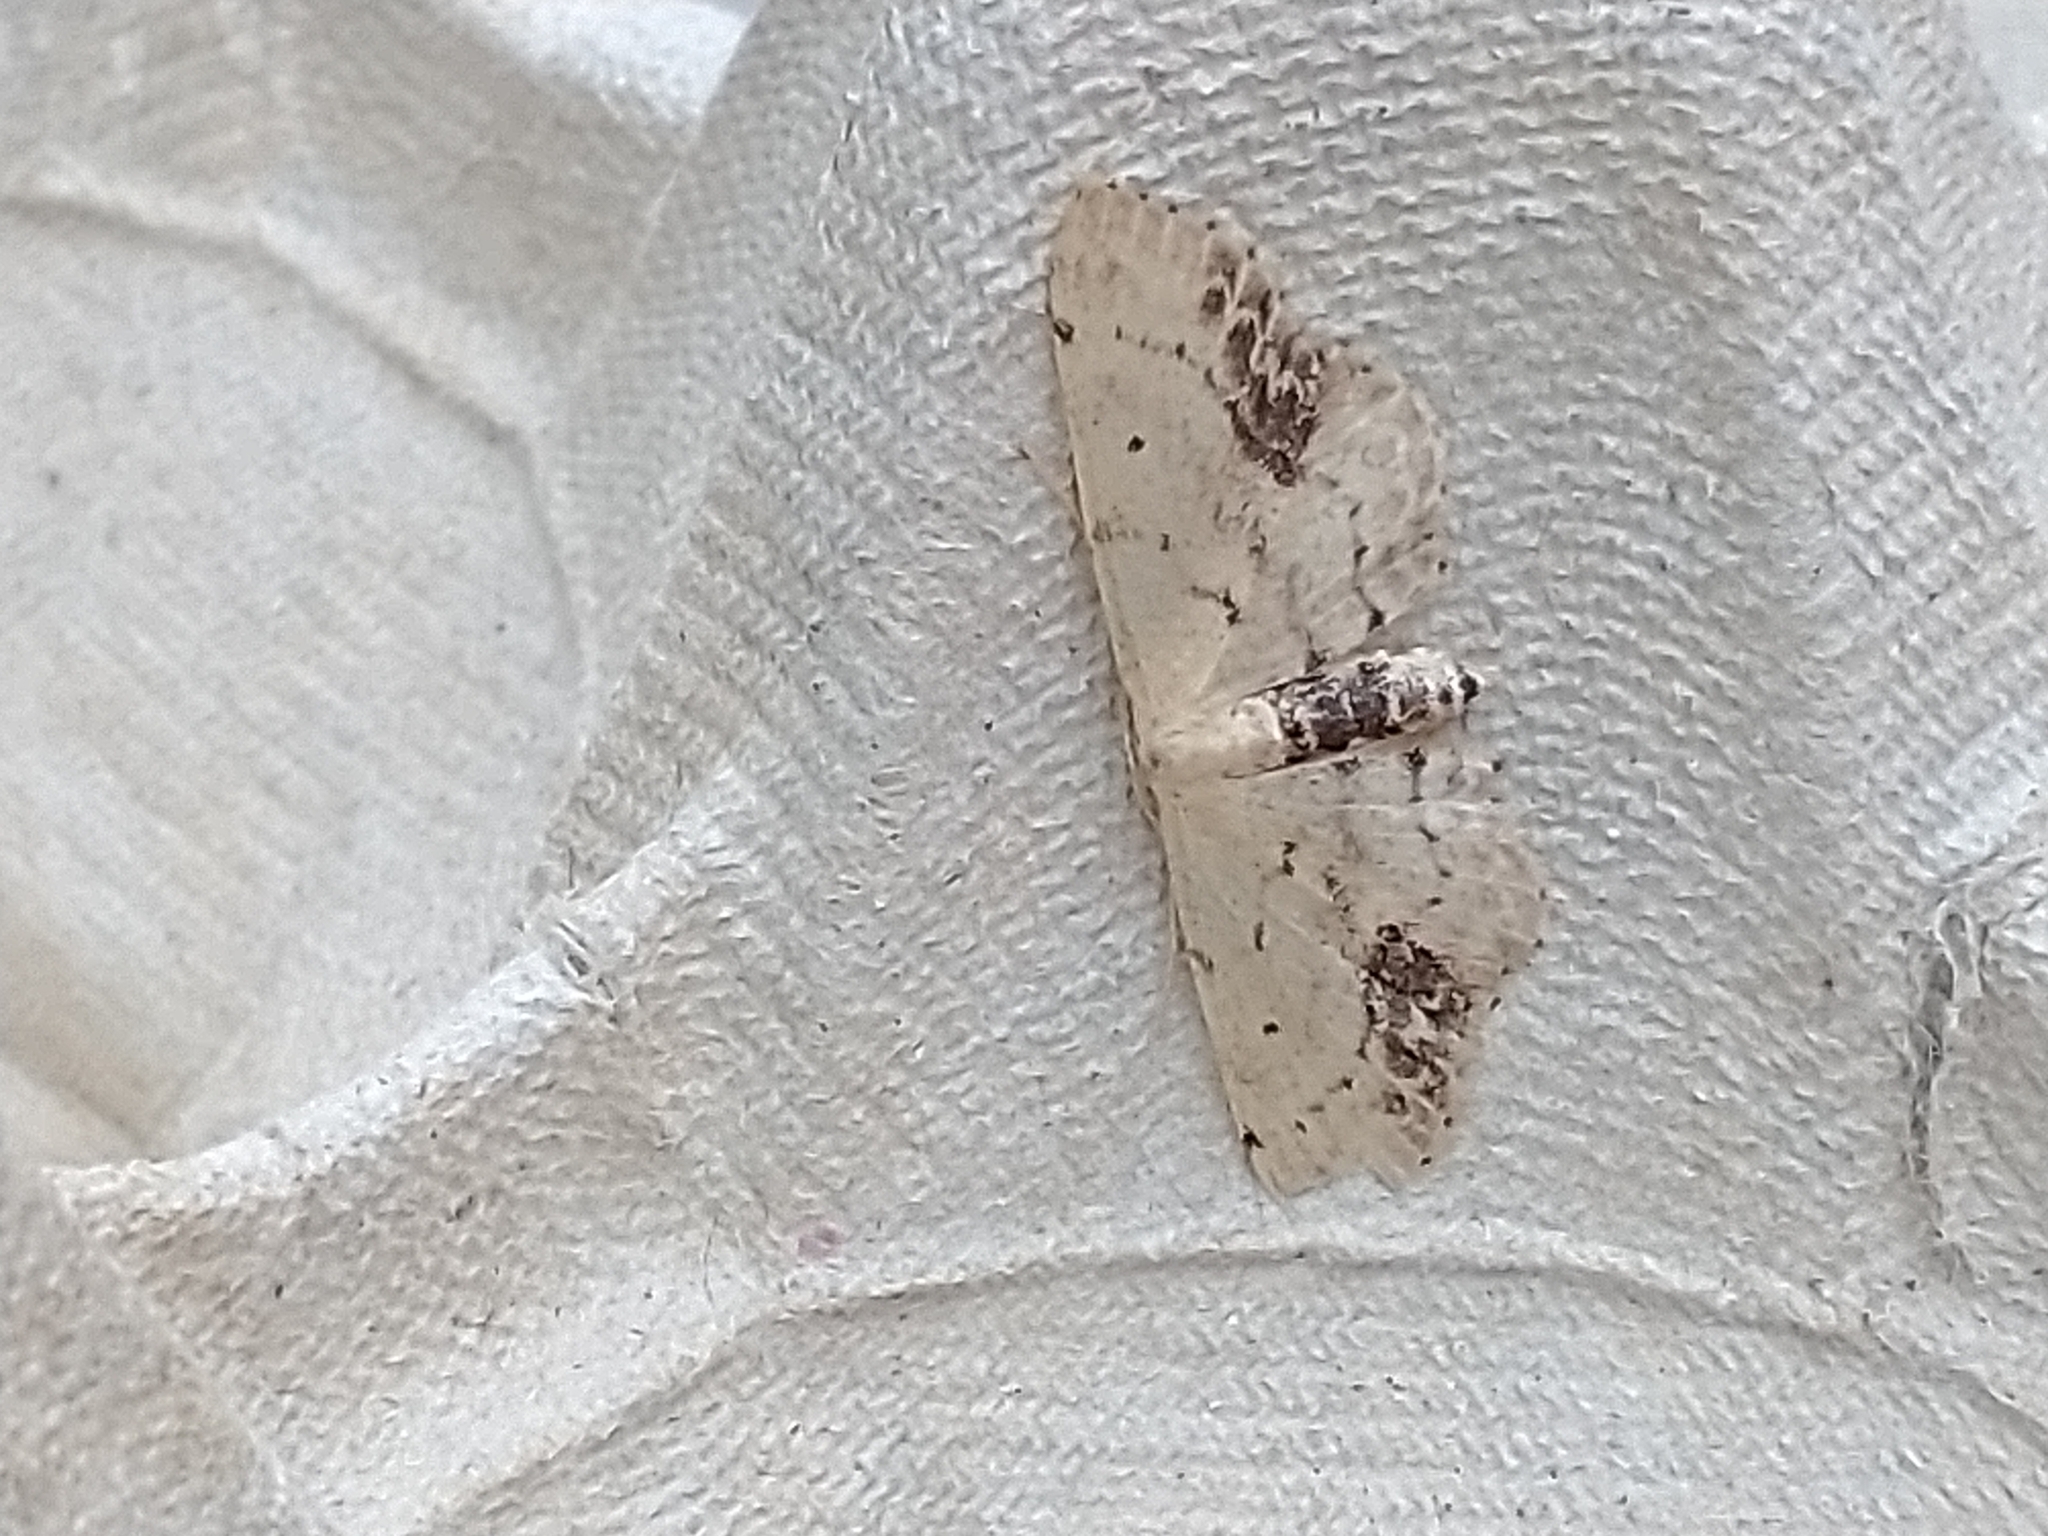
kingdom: Animalia
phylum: Arthropoda
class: Insecta
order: Lepidoptera
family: Geometridae
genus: Idaea
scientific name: Idaea dimidiata
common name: Single-dotted wave
